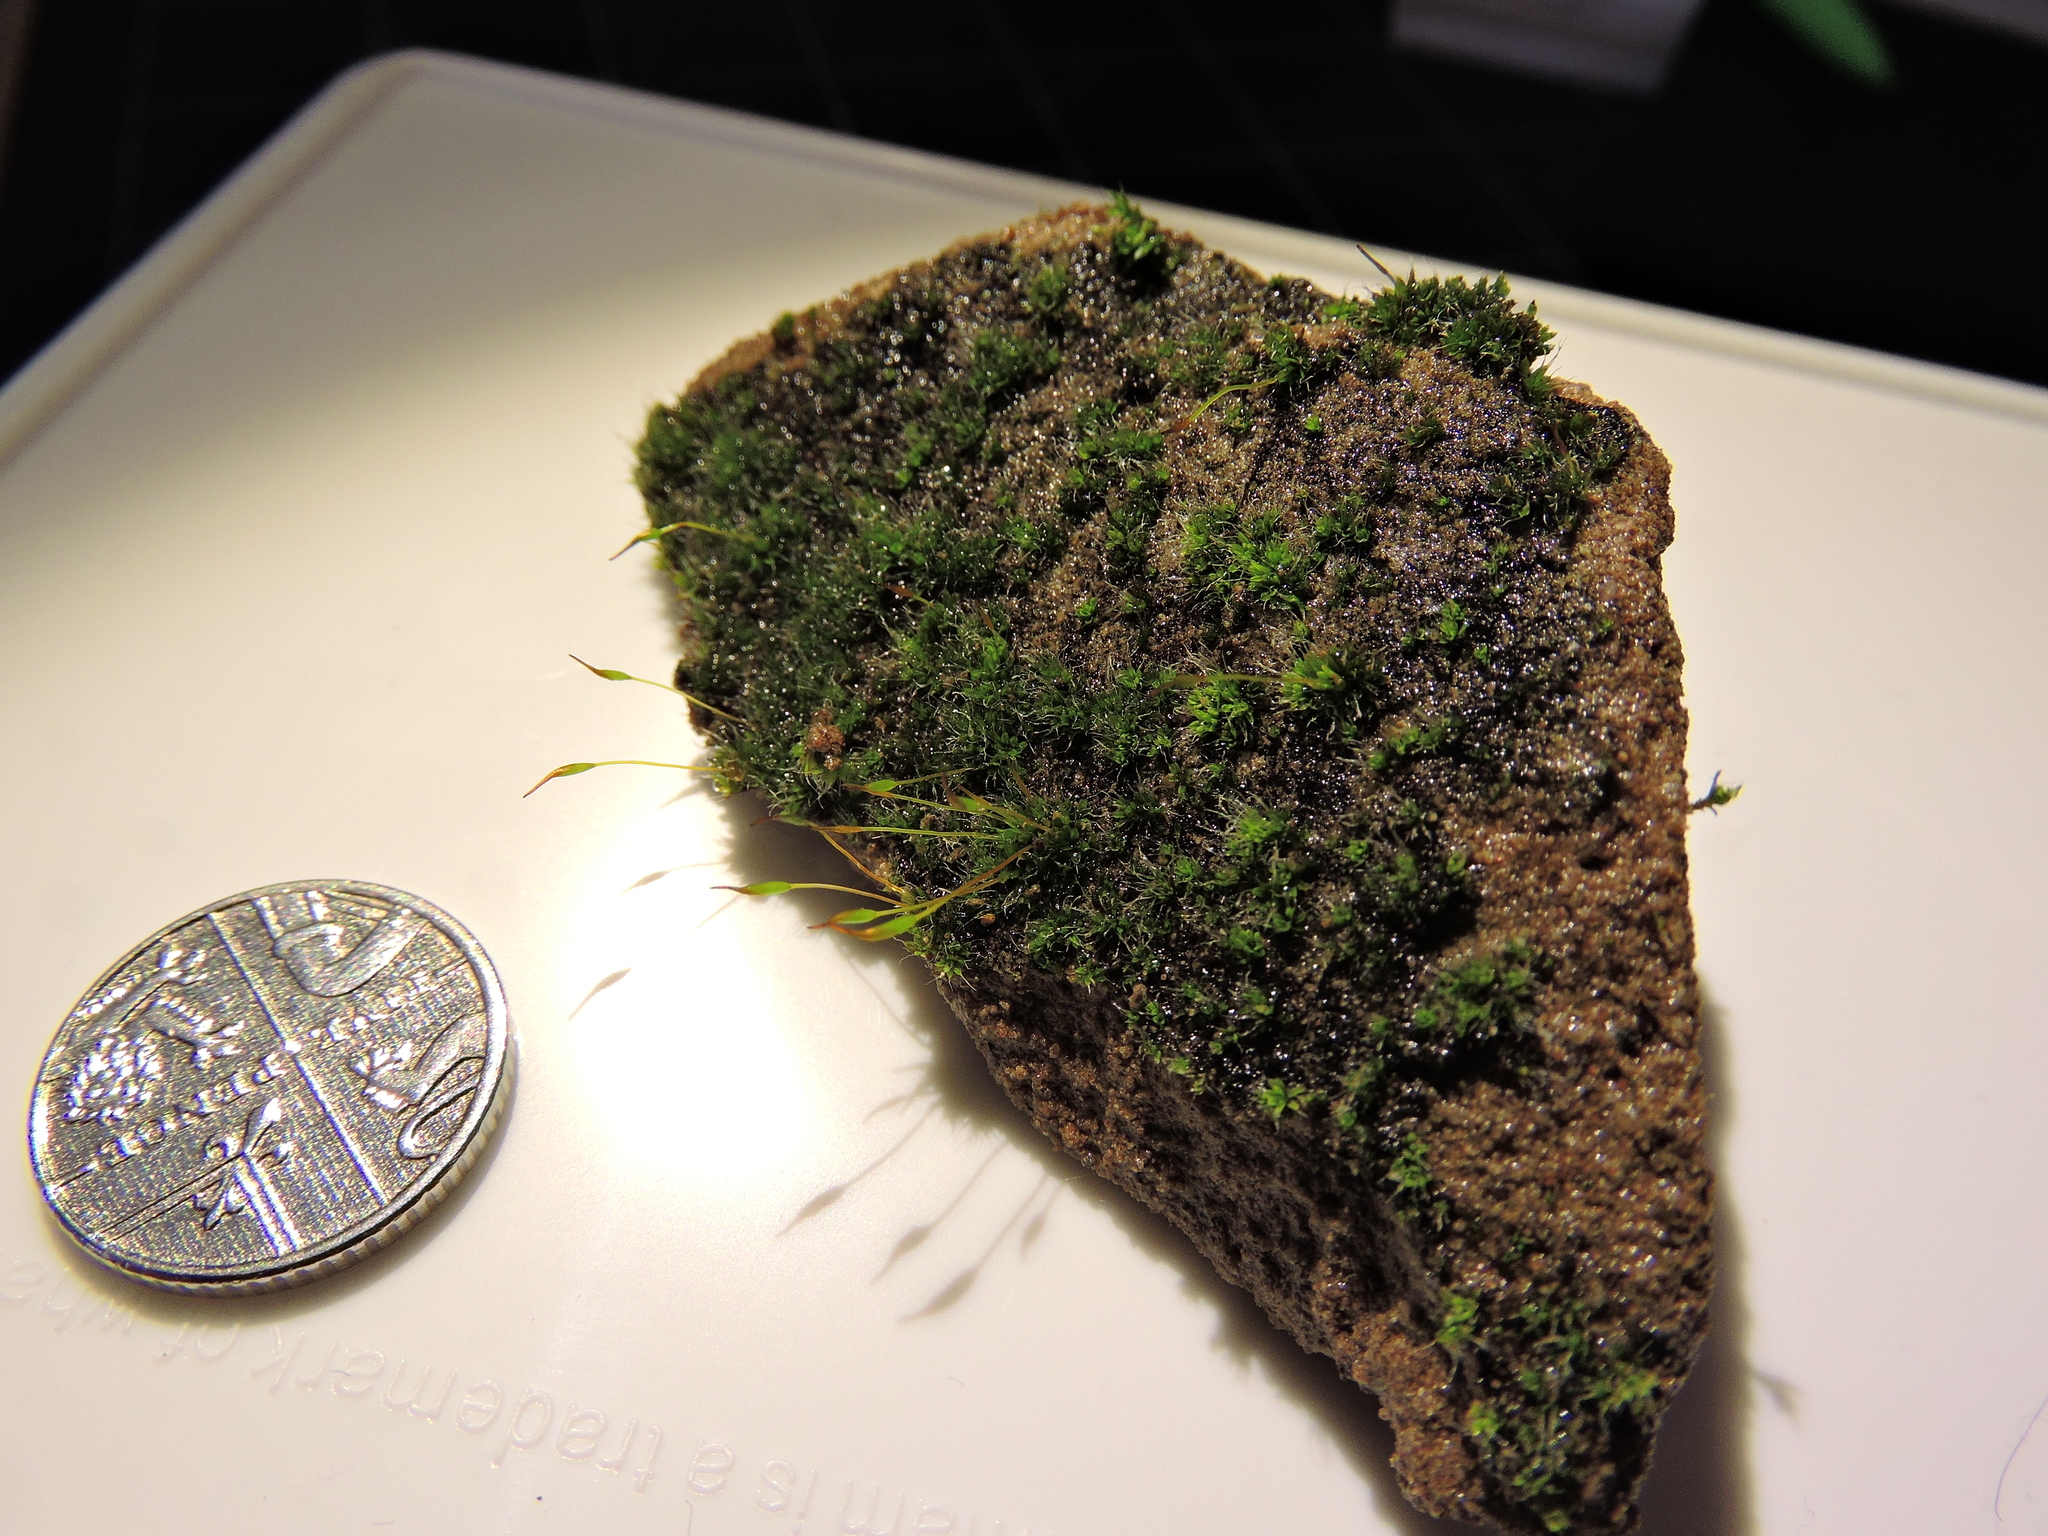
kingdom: Plantae
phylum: Bryophyta
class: Bryopsida
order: Pottiales
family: Pottiaceae
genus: Tortula
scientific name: Tortula muralis
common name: Wall screw-moss
